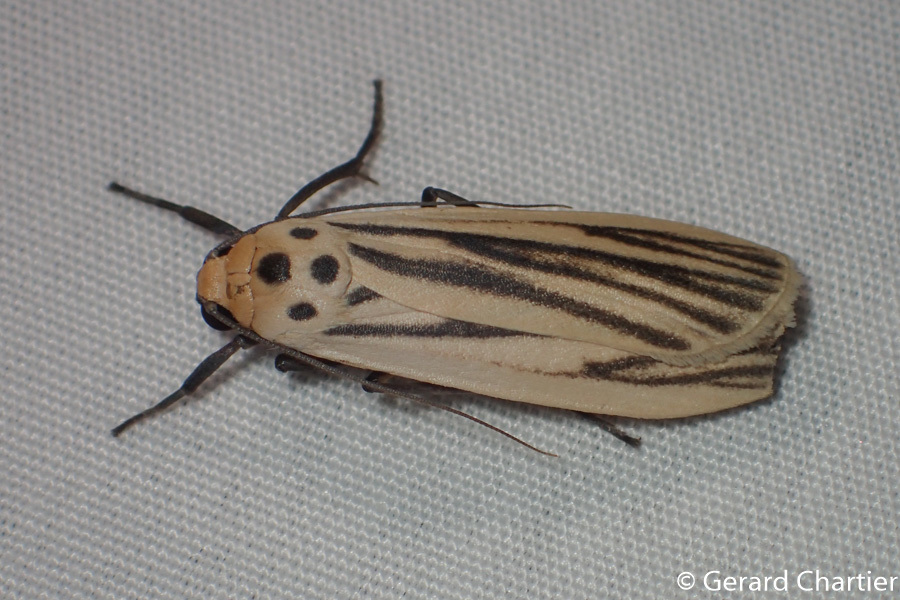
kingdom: Animalia
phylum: Arthropoda
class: Insecta
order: Lepidoptera
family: Erebidae
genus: Tigrioides
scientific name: Tigrioides leucanioides
